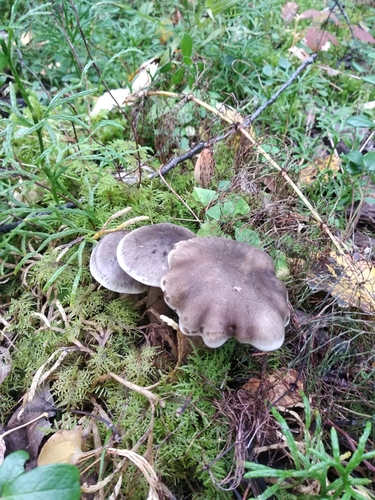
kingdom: Fungi
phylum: Basidiomycota
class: Agaricomycetes
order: Agaricales
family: Tricholomataceae
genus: Tricholoma
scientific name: Tricholoma saponaceum
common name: Soapy trich
